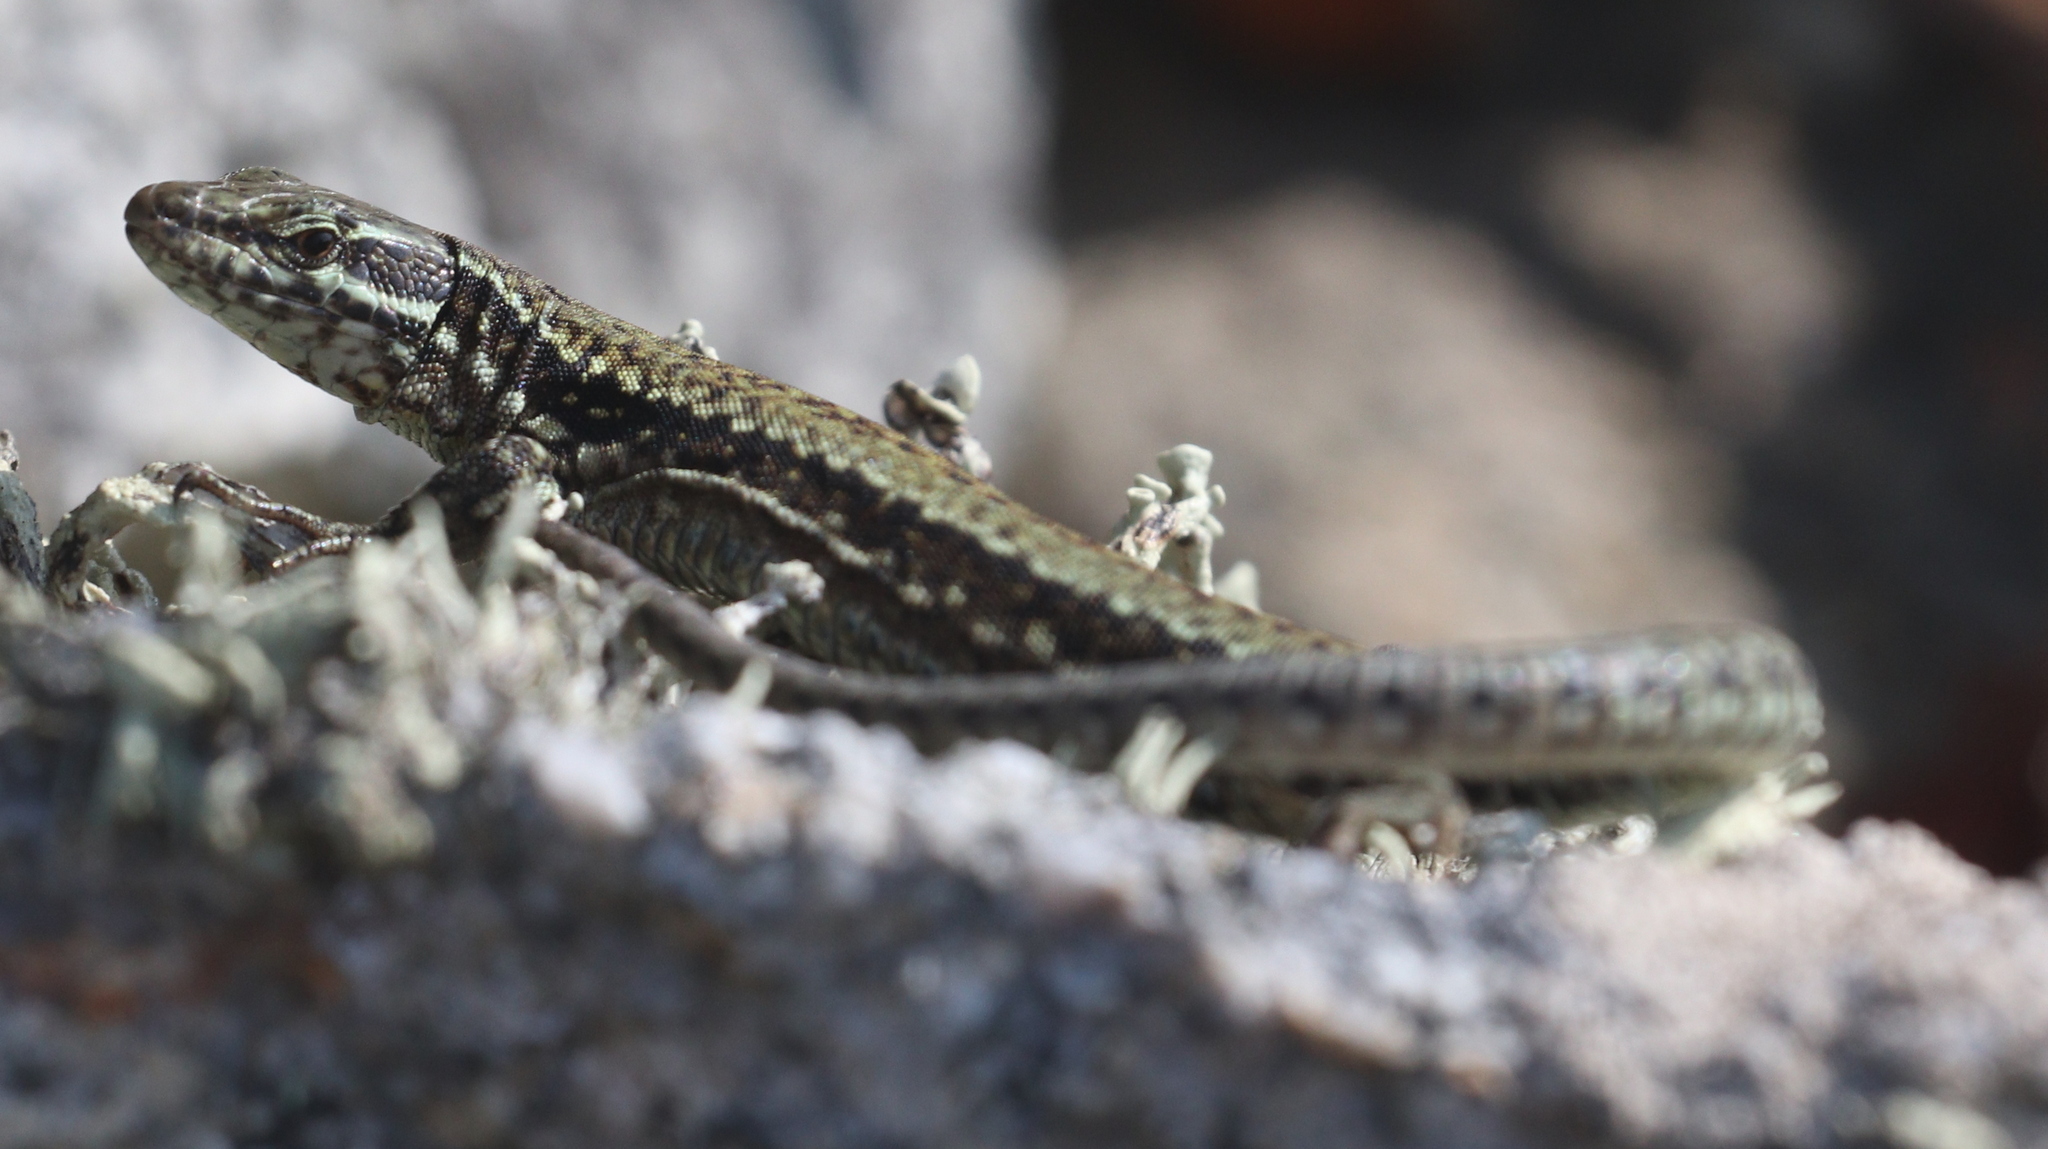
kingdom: Animalia
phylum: Chordata
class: Squamata
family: Lacertidae
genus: Podarcis
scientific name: Podarcis muralis
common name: Common wall lizard
